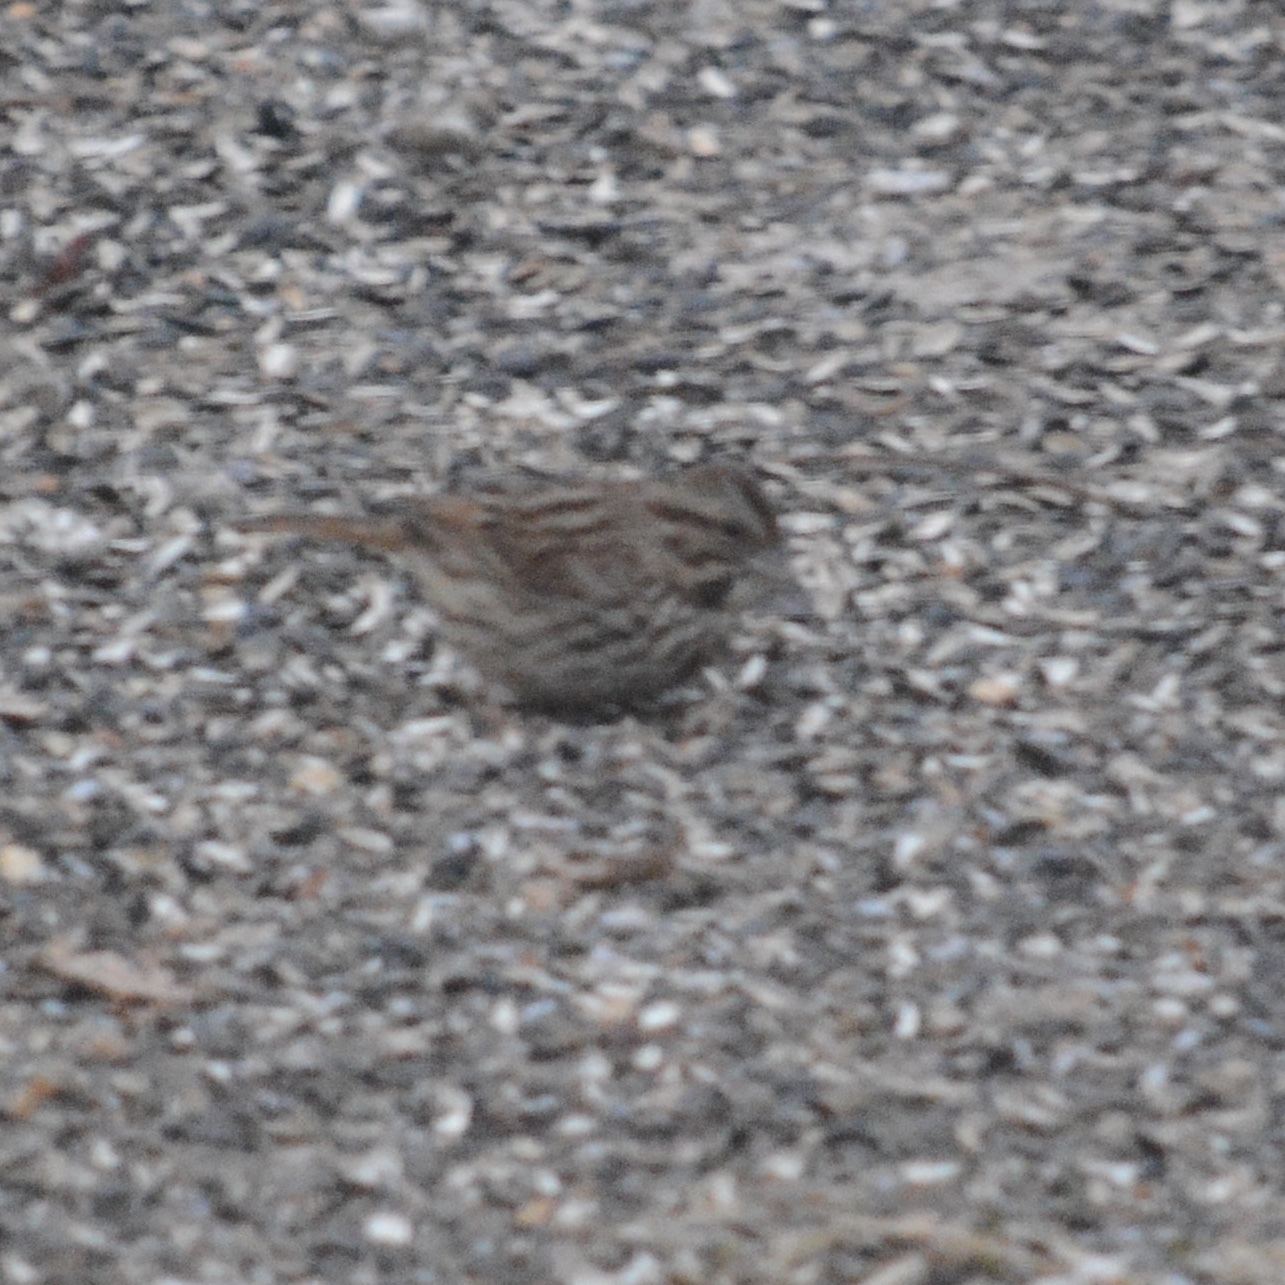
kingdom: Animalia
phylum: Chordata
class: Aves
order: Passeriformes
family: Passerellidae
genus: Melospiza
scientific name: Melospiza melodia
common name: Song sparrow
